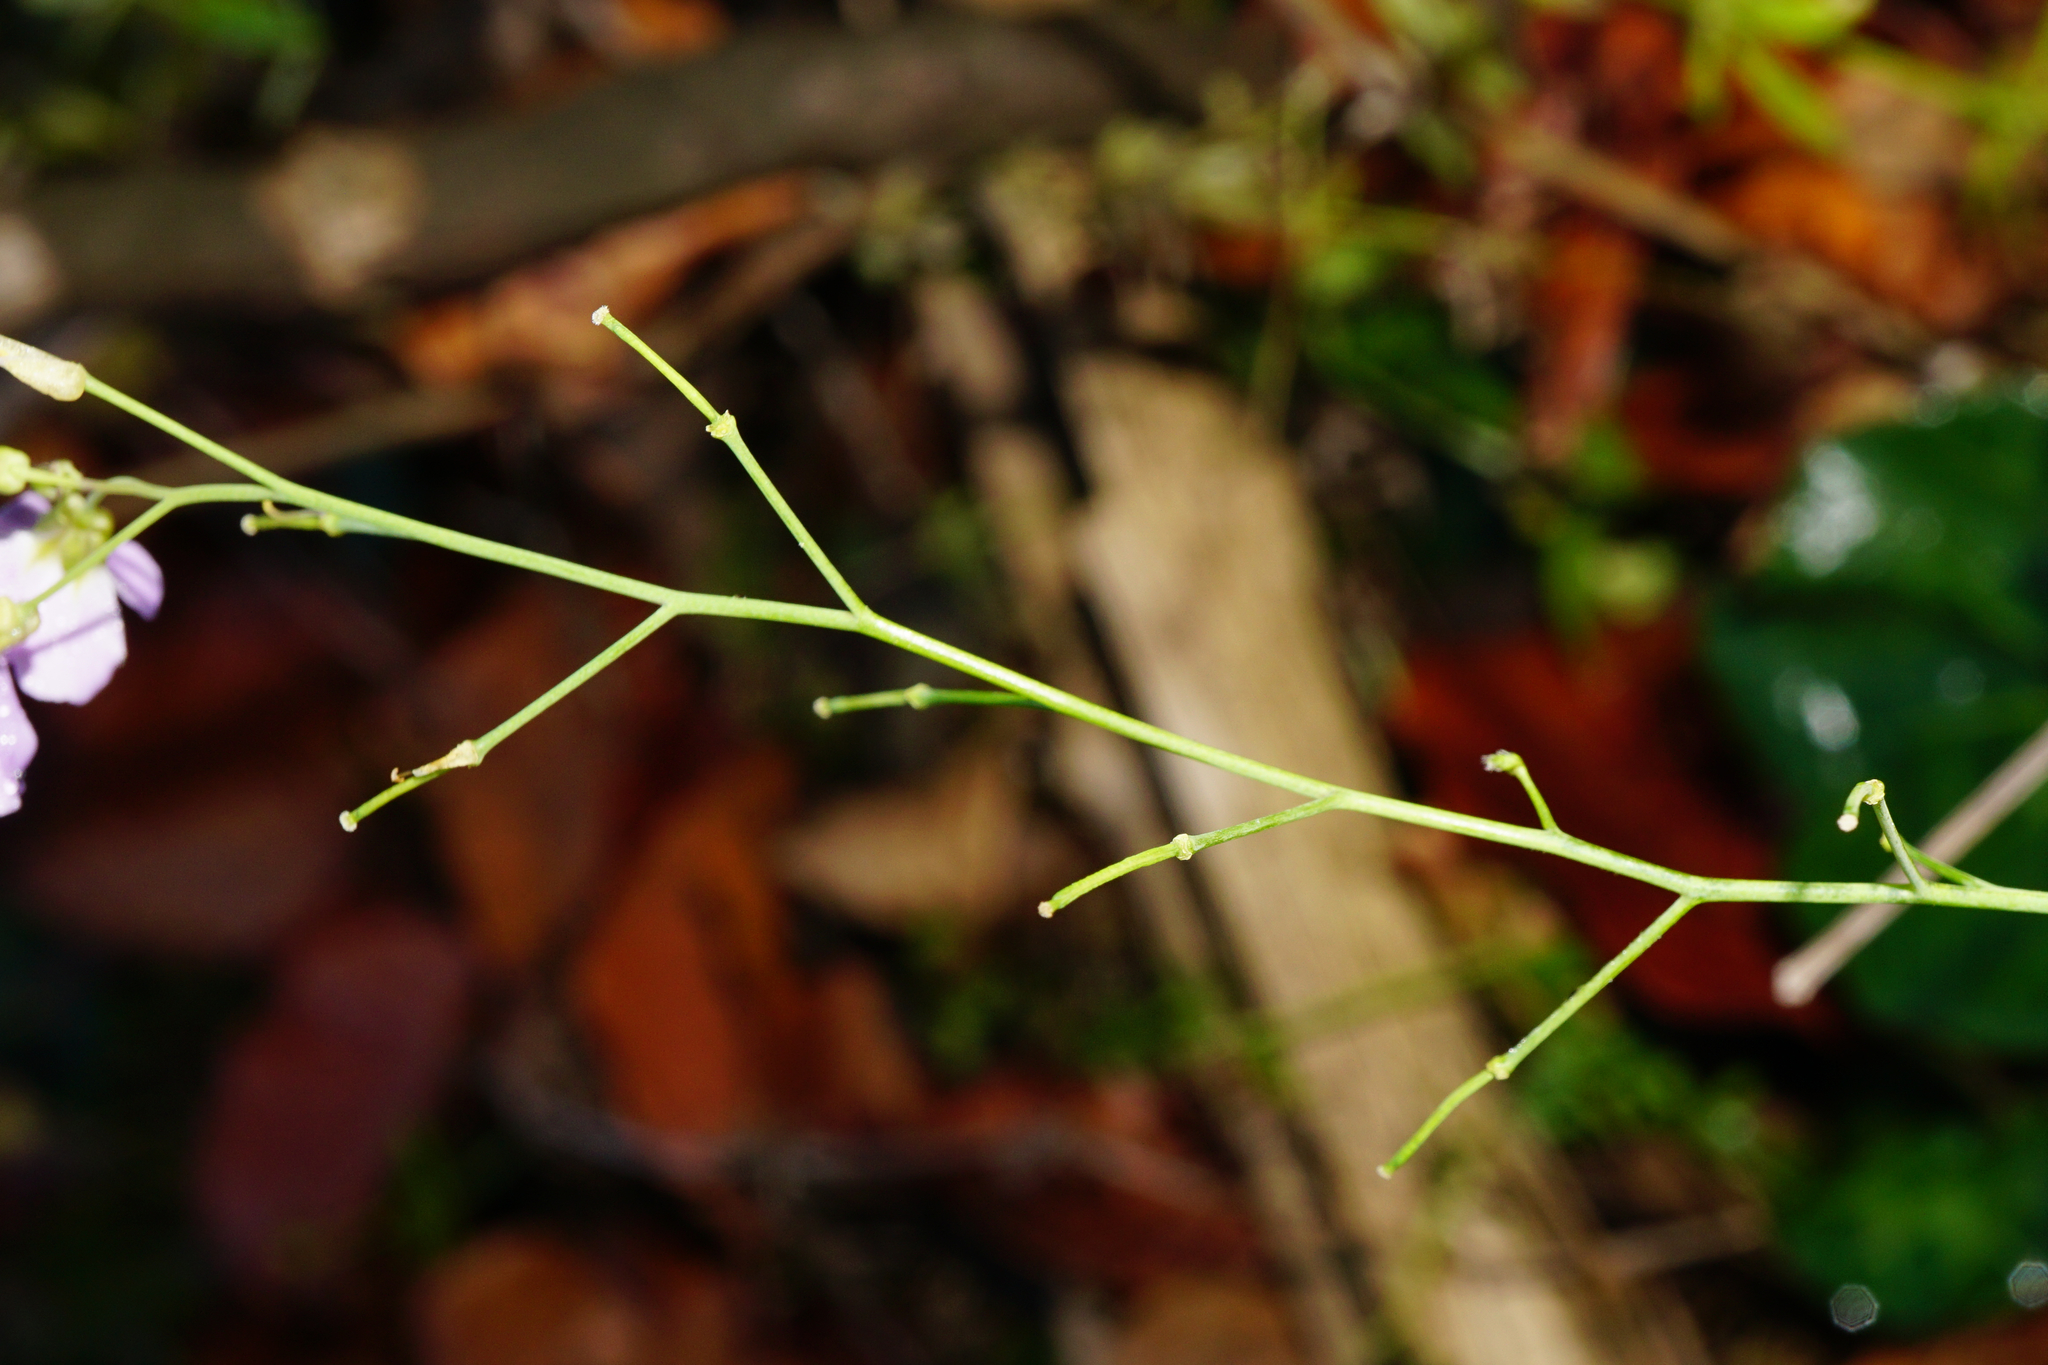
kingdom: Plantae
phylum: Tracheophyta
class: Magnoliopsida
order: Brassicales
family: Brassicaceae
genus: Arabidopsis
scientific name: Arabidopsis arenosa
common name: Sand rock-cress
